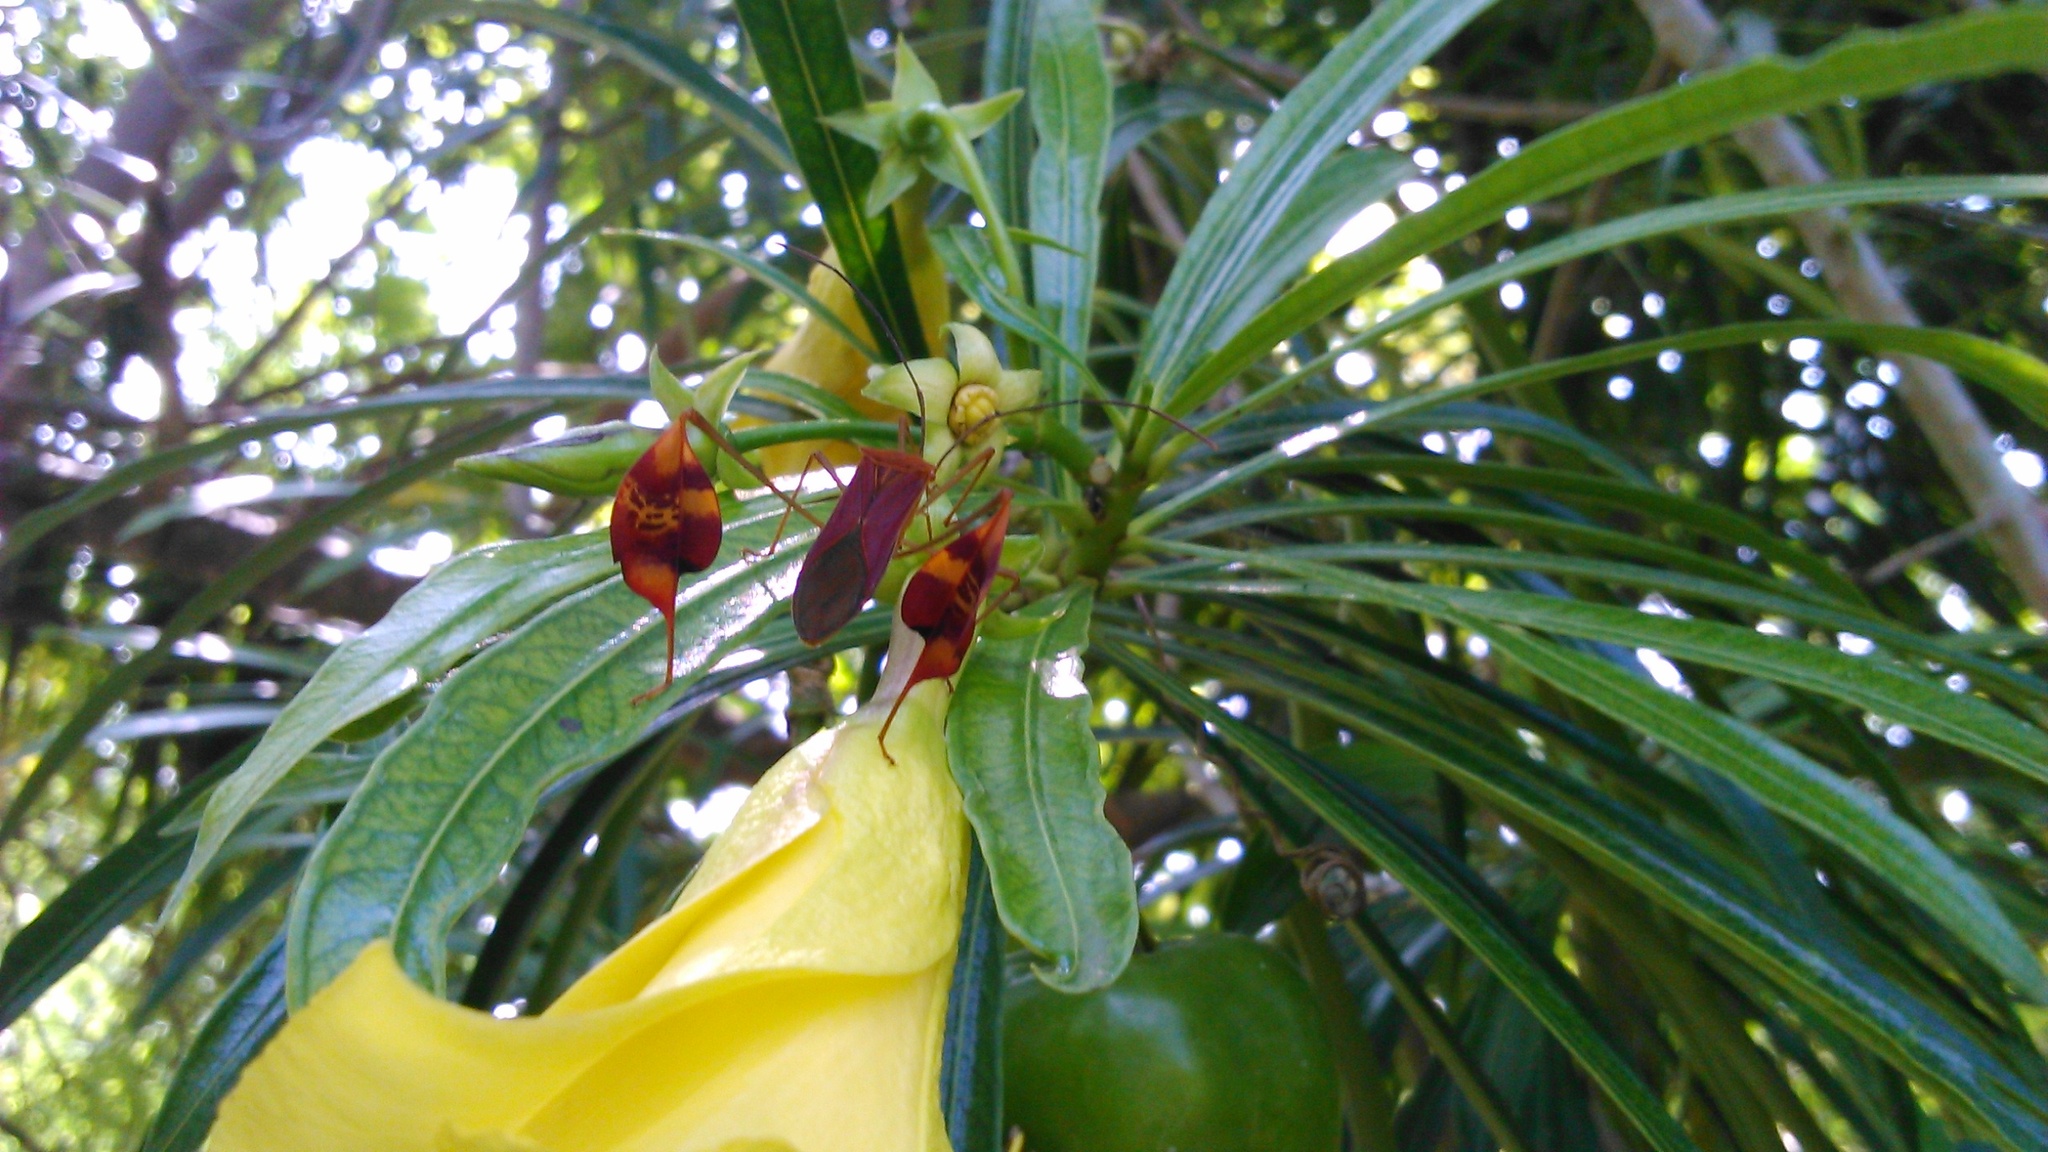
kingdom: Animalia
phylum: Arthropoda
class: Insecta
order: Hemiptera
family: Coreidae
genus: Bitta
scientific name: Bitta
